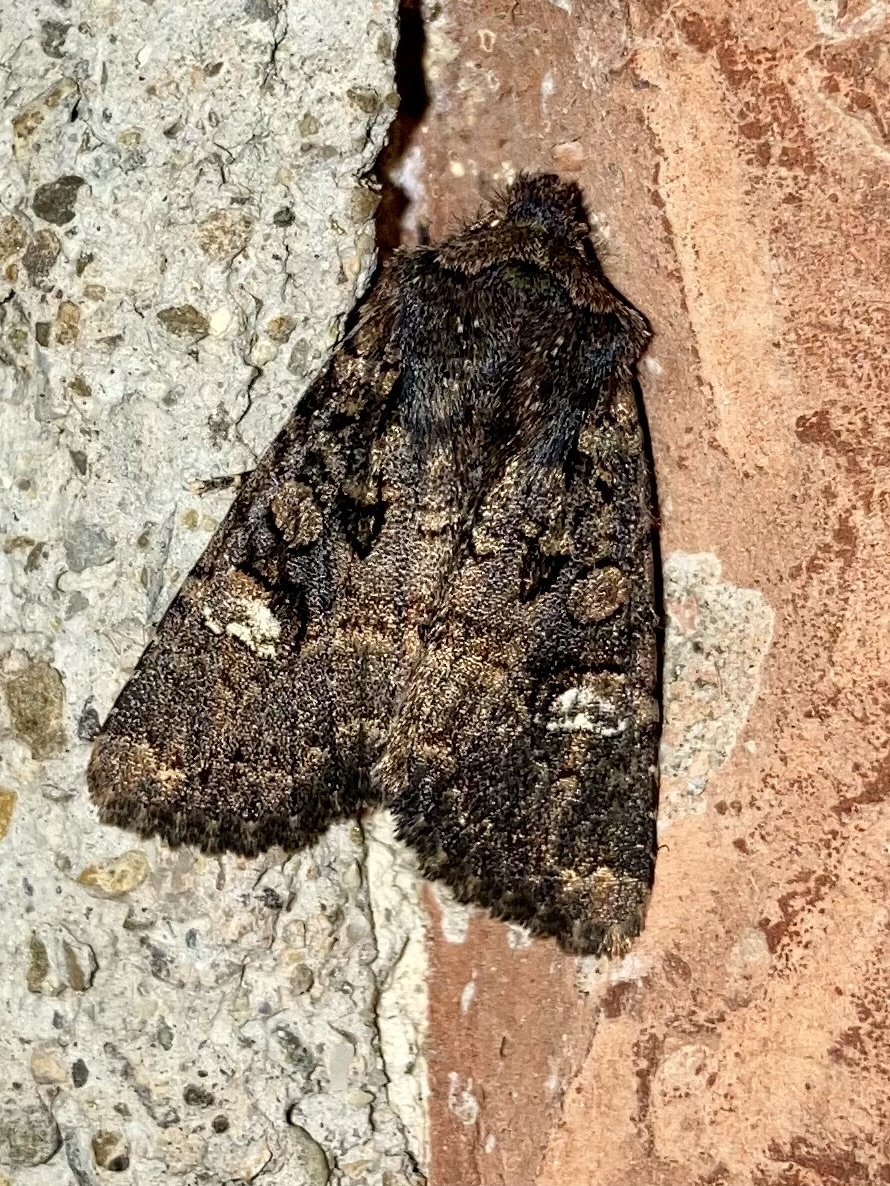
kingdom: Animalia
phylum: Arthropoda
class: Insecta
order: Lepidoptera
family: Noctuidae
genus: Dryobota
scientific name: Dryobota labecula
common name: Oak rustic
